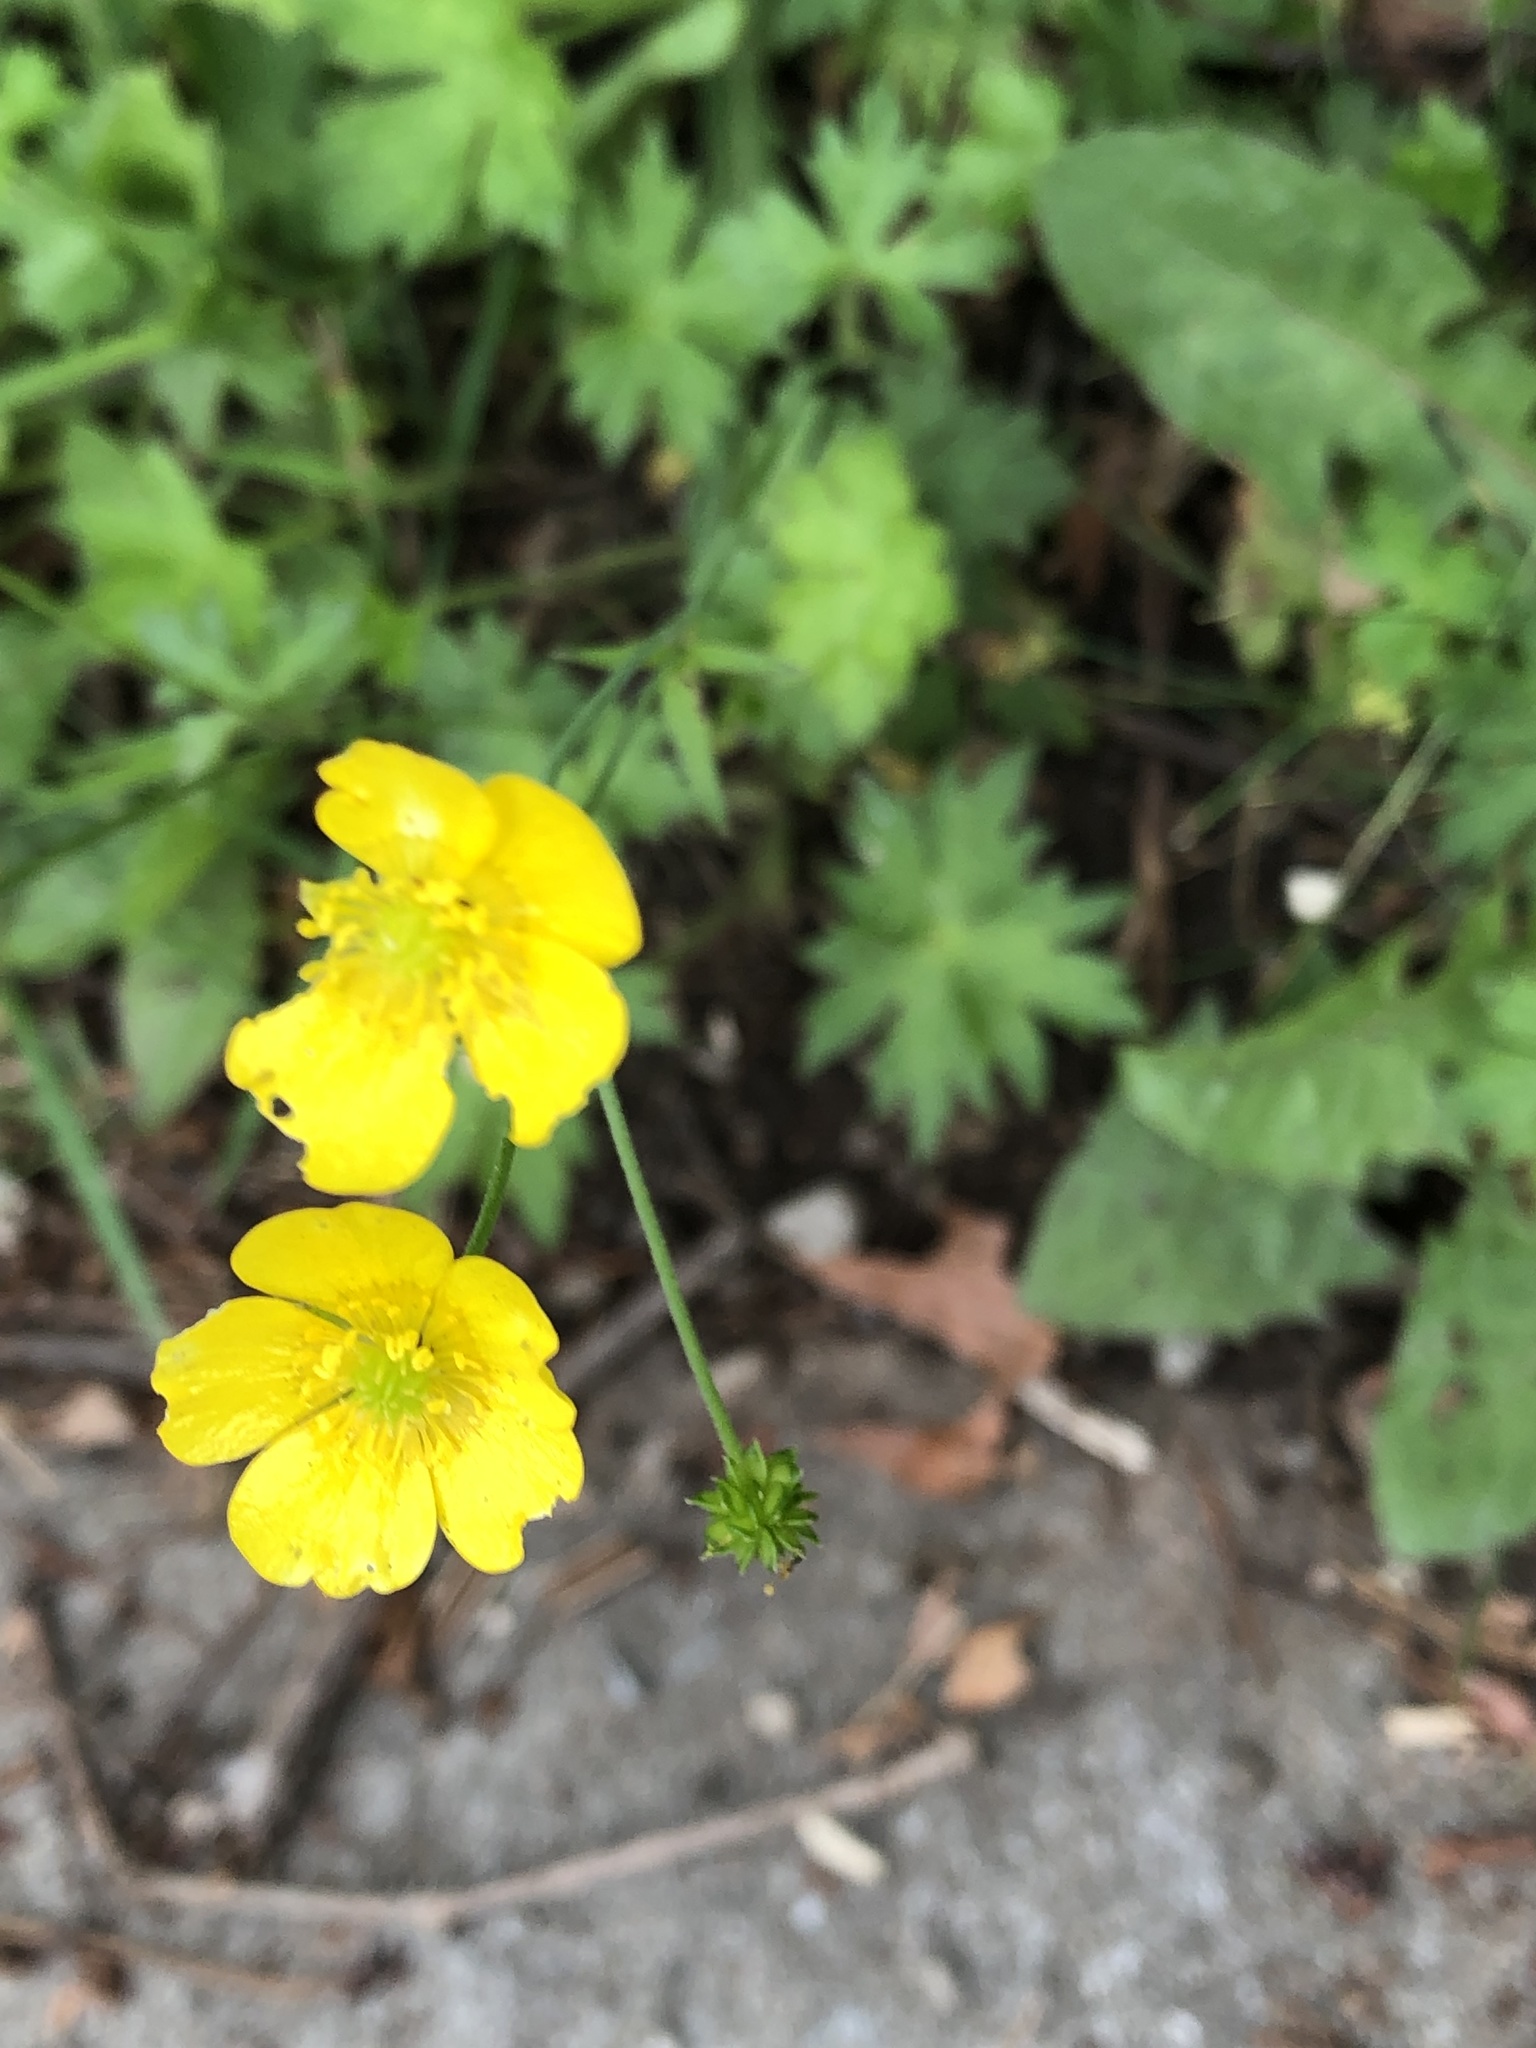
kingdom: Plantae
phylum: Tracheophyta
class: Magnoliopsida
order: Ranunculales
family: Ranunculaceae
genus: Ranunculus
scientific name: Ranunculus acris
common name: Meadow buttercup
